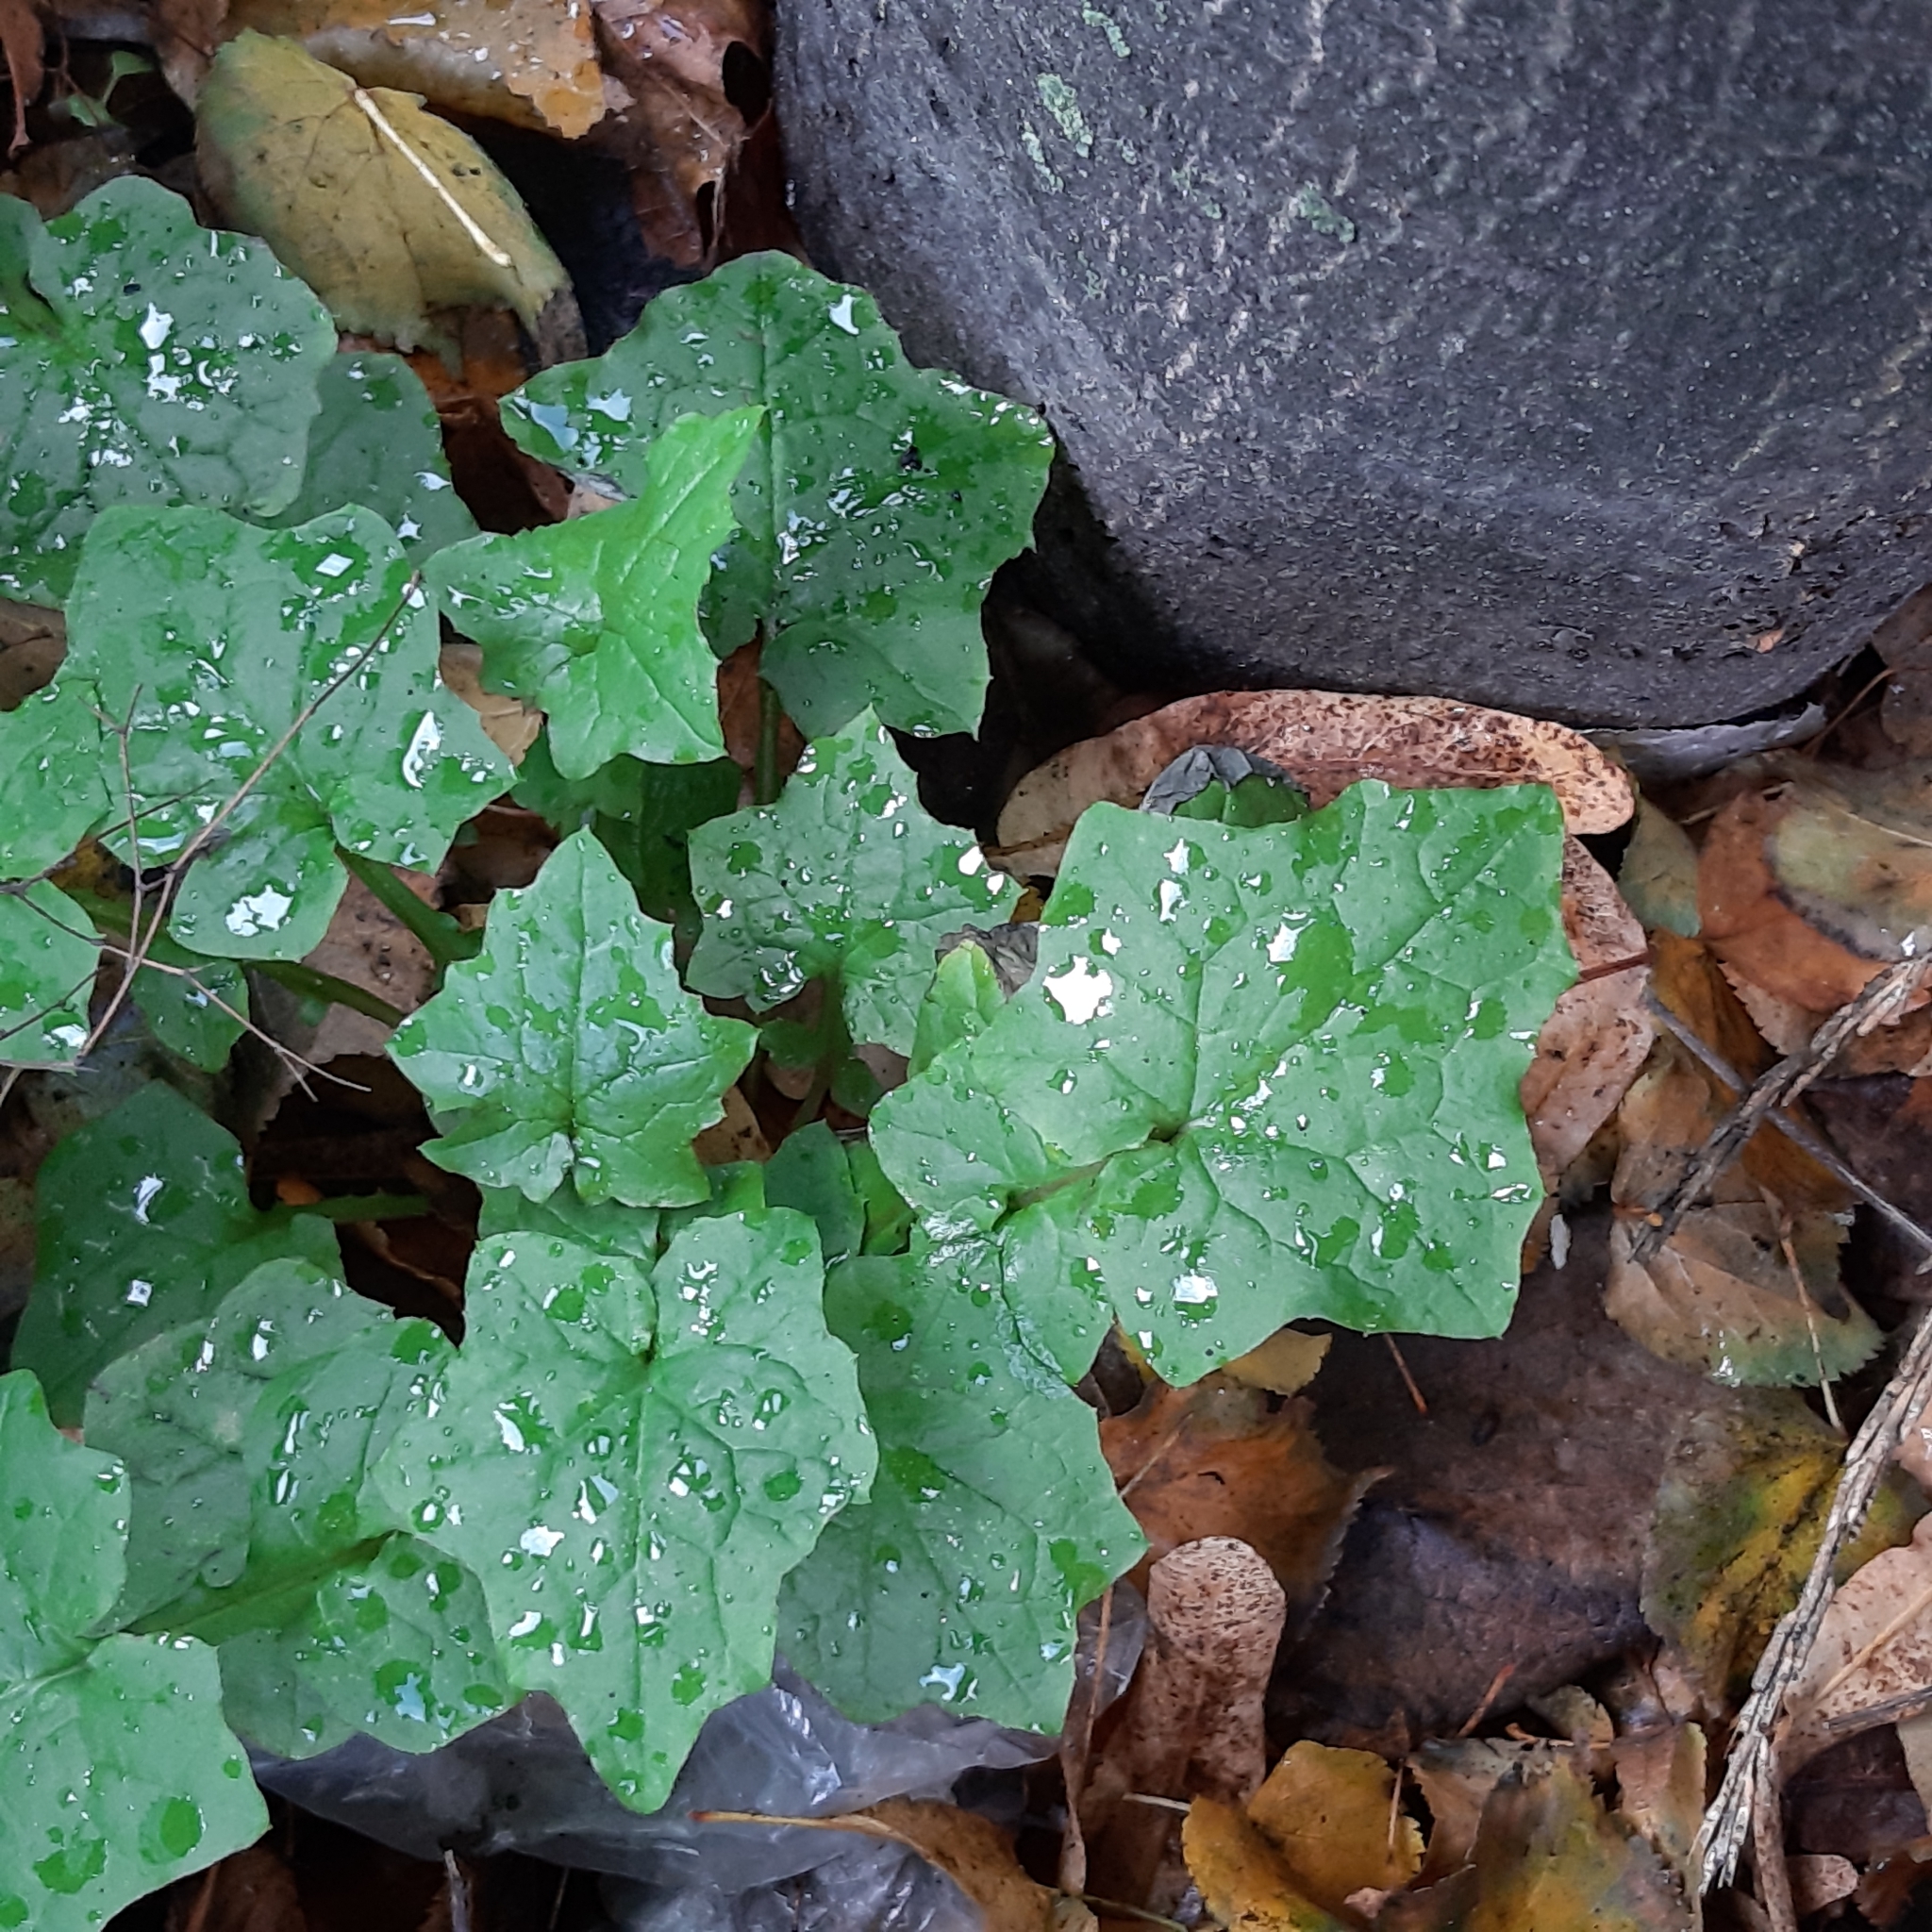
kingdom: Plantae
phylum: Tracheophyta
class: Magnoliopsida
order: Asterales
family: Asteraceae
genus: Mycelis
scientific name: Mycelis muralis
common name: Wall lettuce
